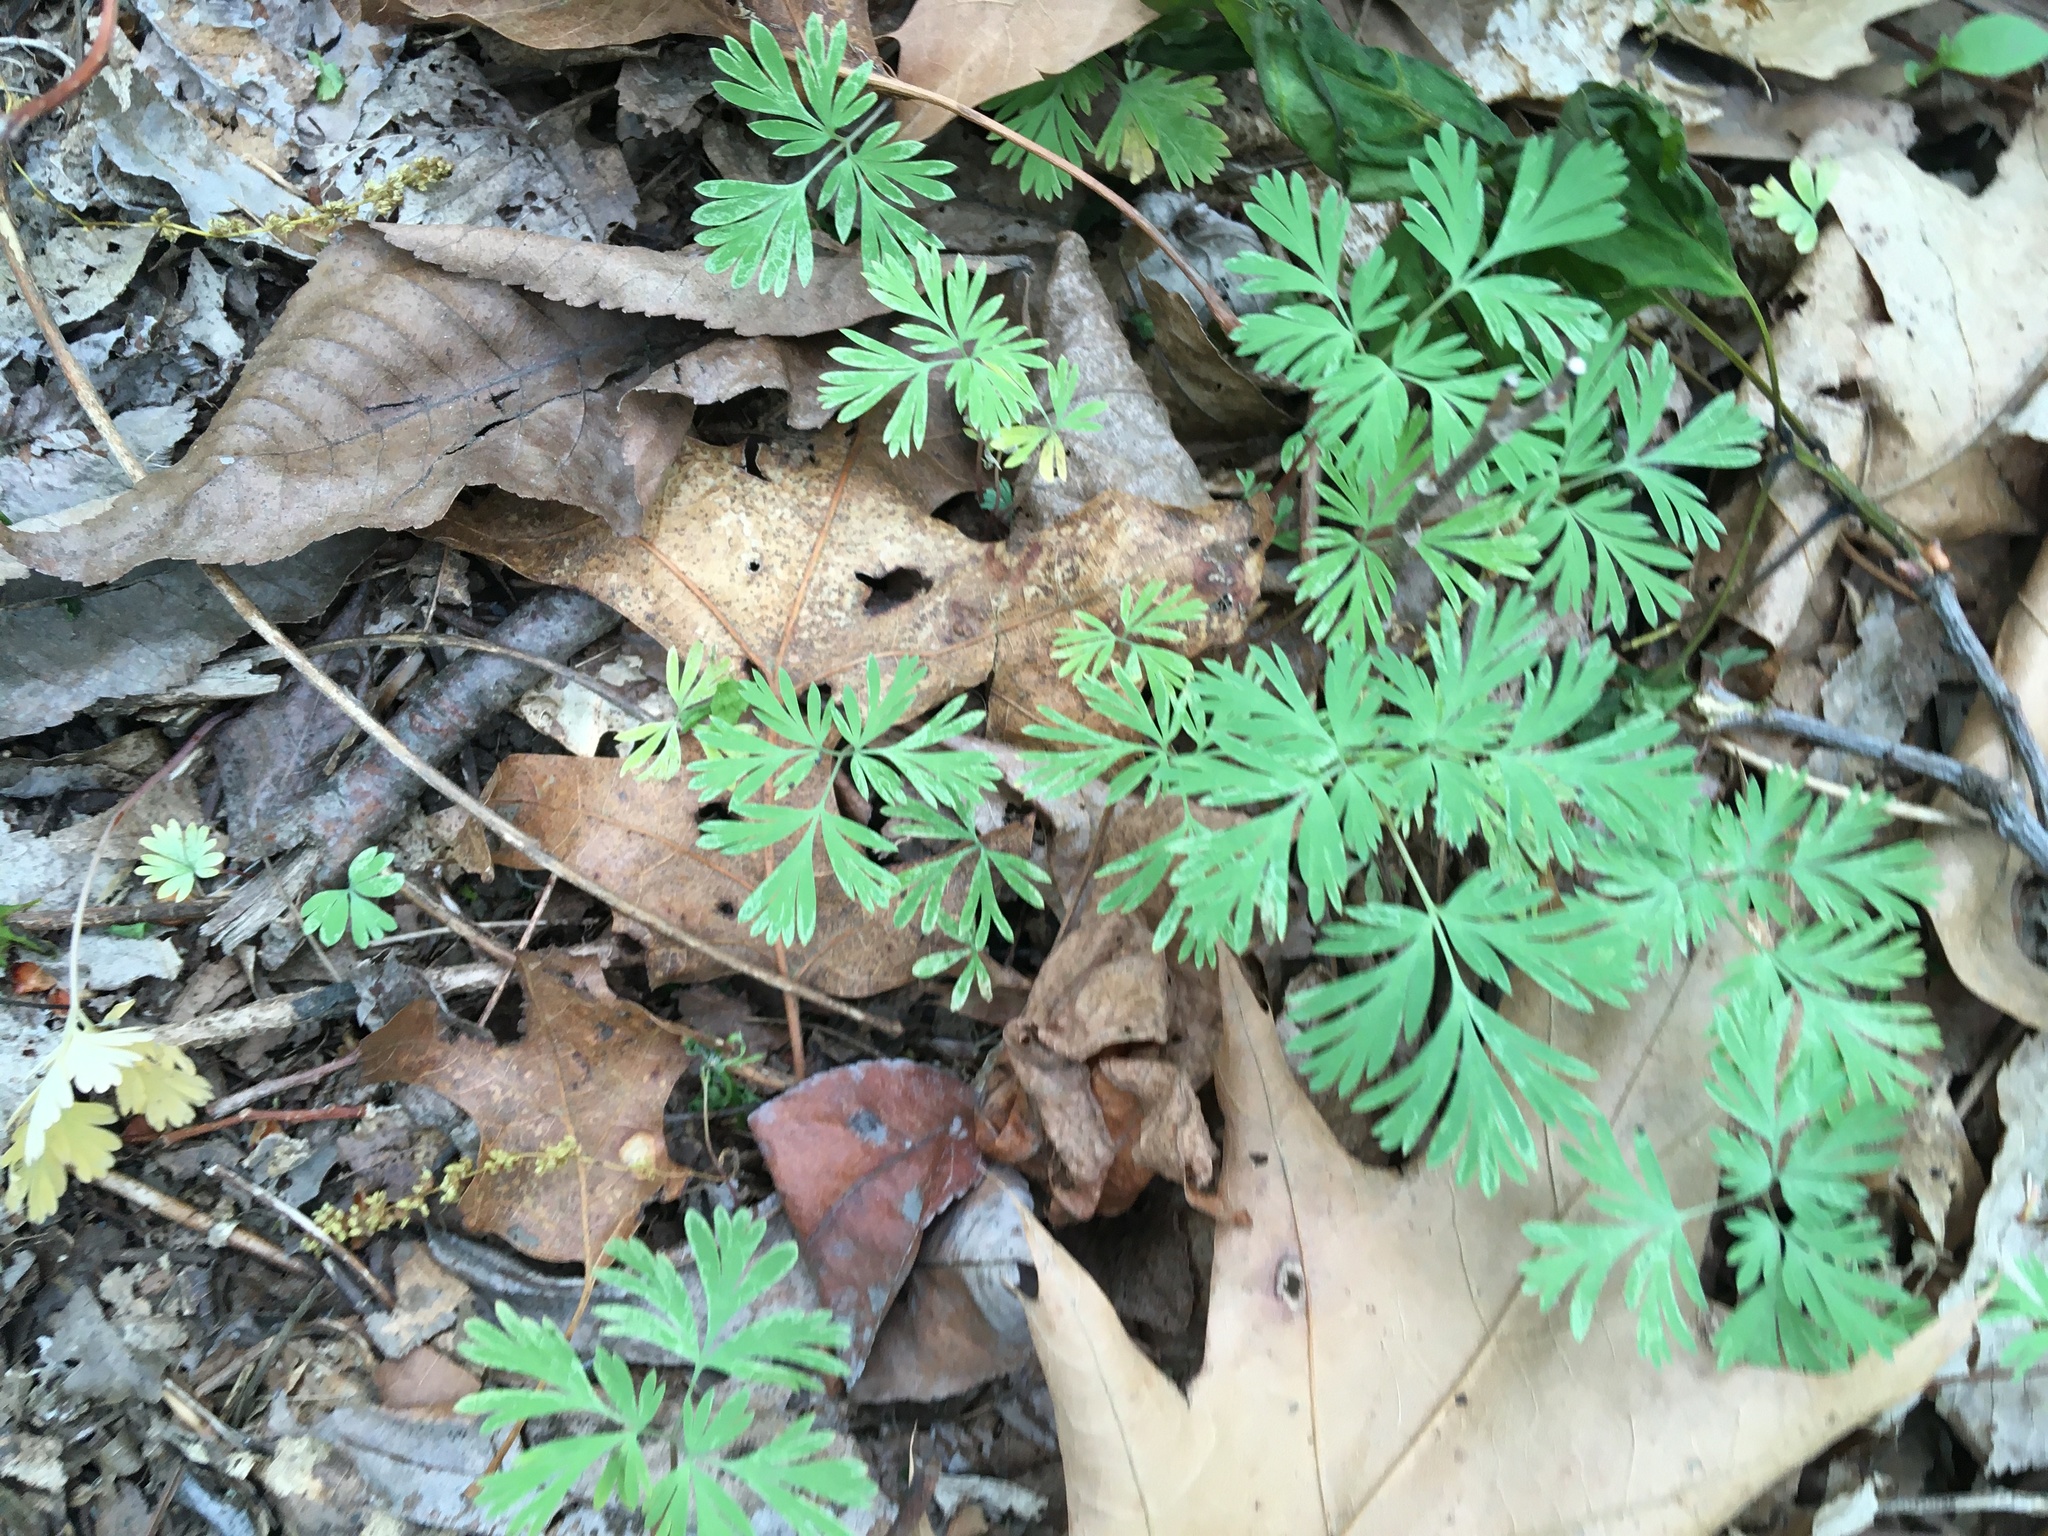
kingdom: Plantae
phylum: Tracheophyta
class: Magnoliopsida
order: Ranunculales
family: Papaveraceae
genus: Dicentra
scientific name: Dicentra cucullaria
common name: Dutchman's breeches
